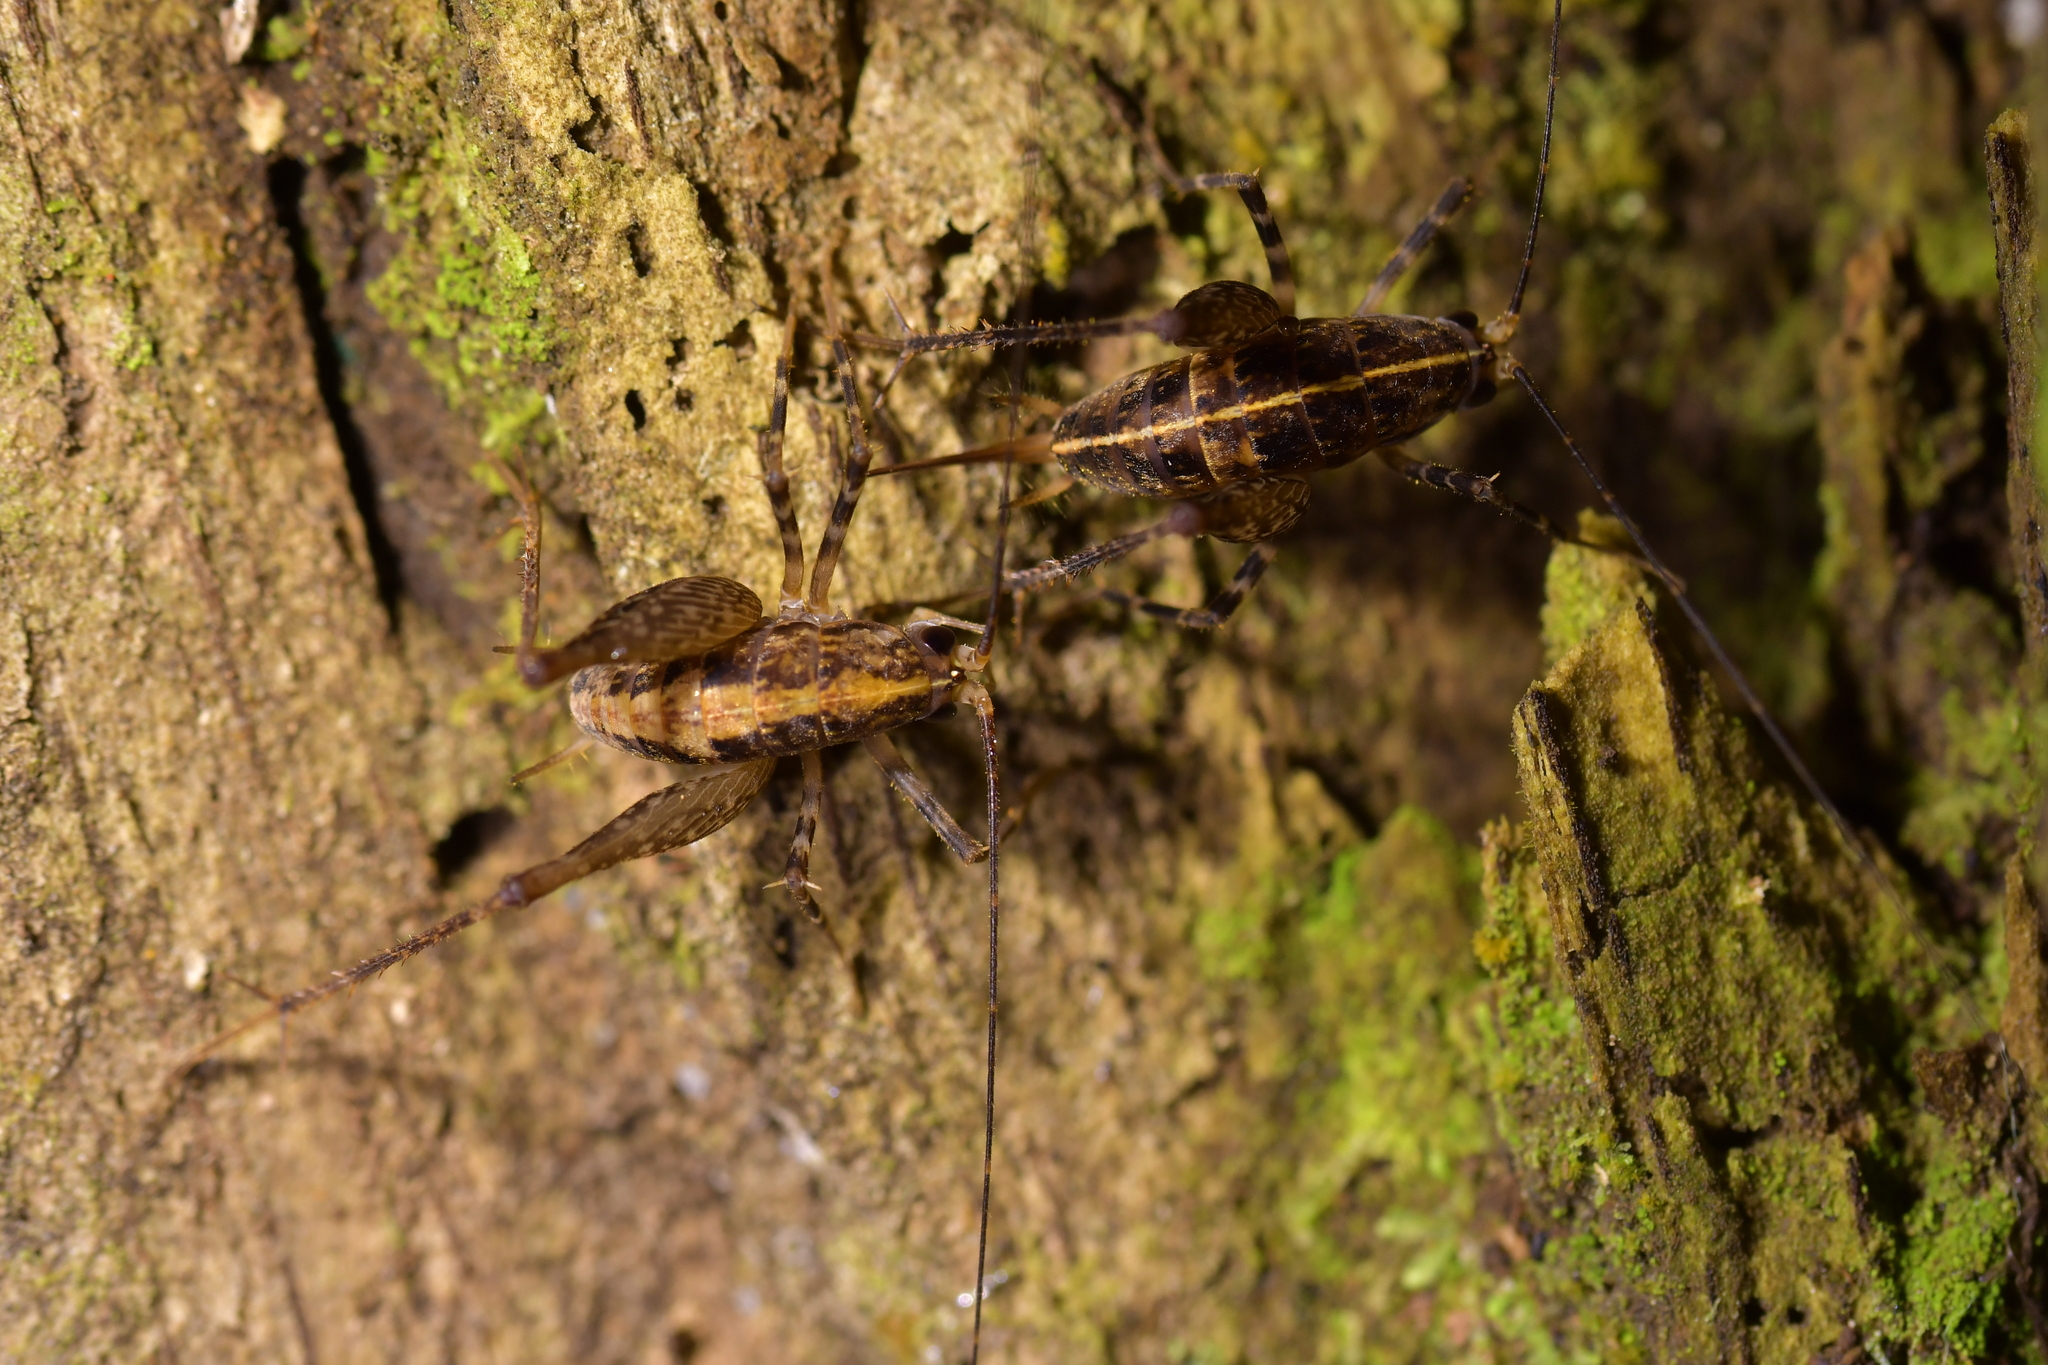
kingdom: Animalia
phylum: Arthropoda
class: Insecta
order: Orthoptera
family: Rhaphidophoridae
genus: Pleioplectron
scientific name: Pleioplectron hudsoni
